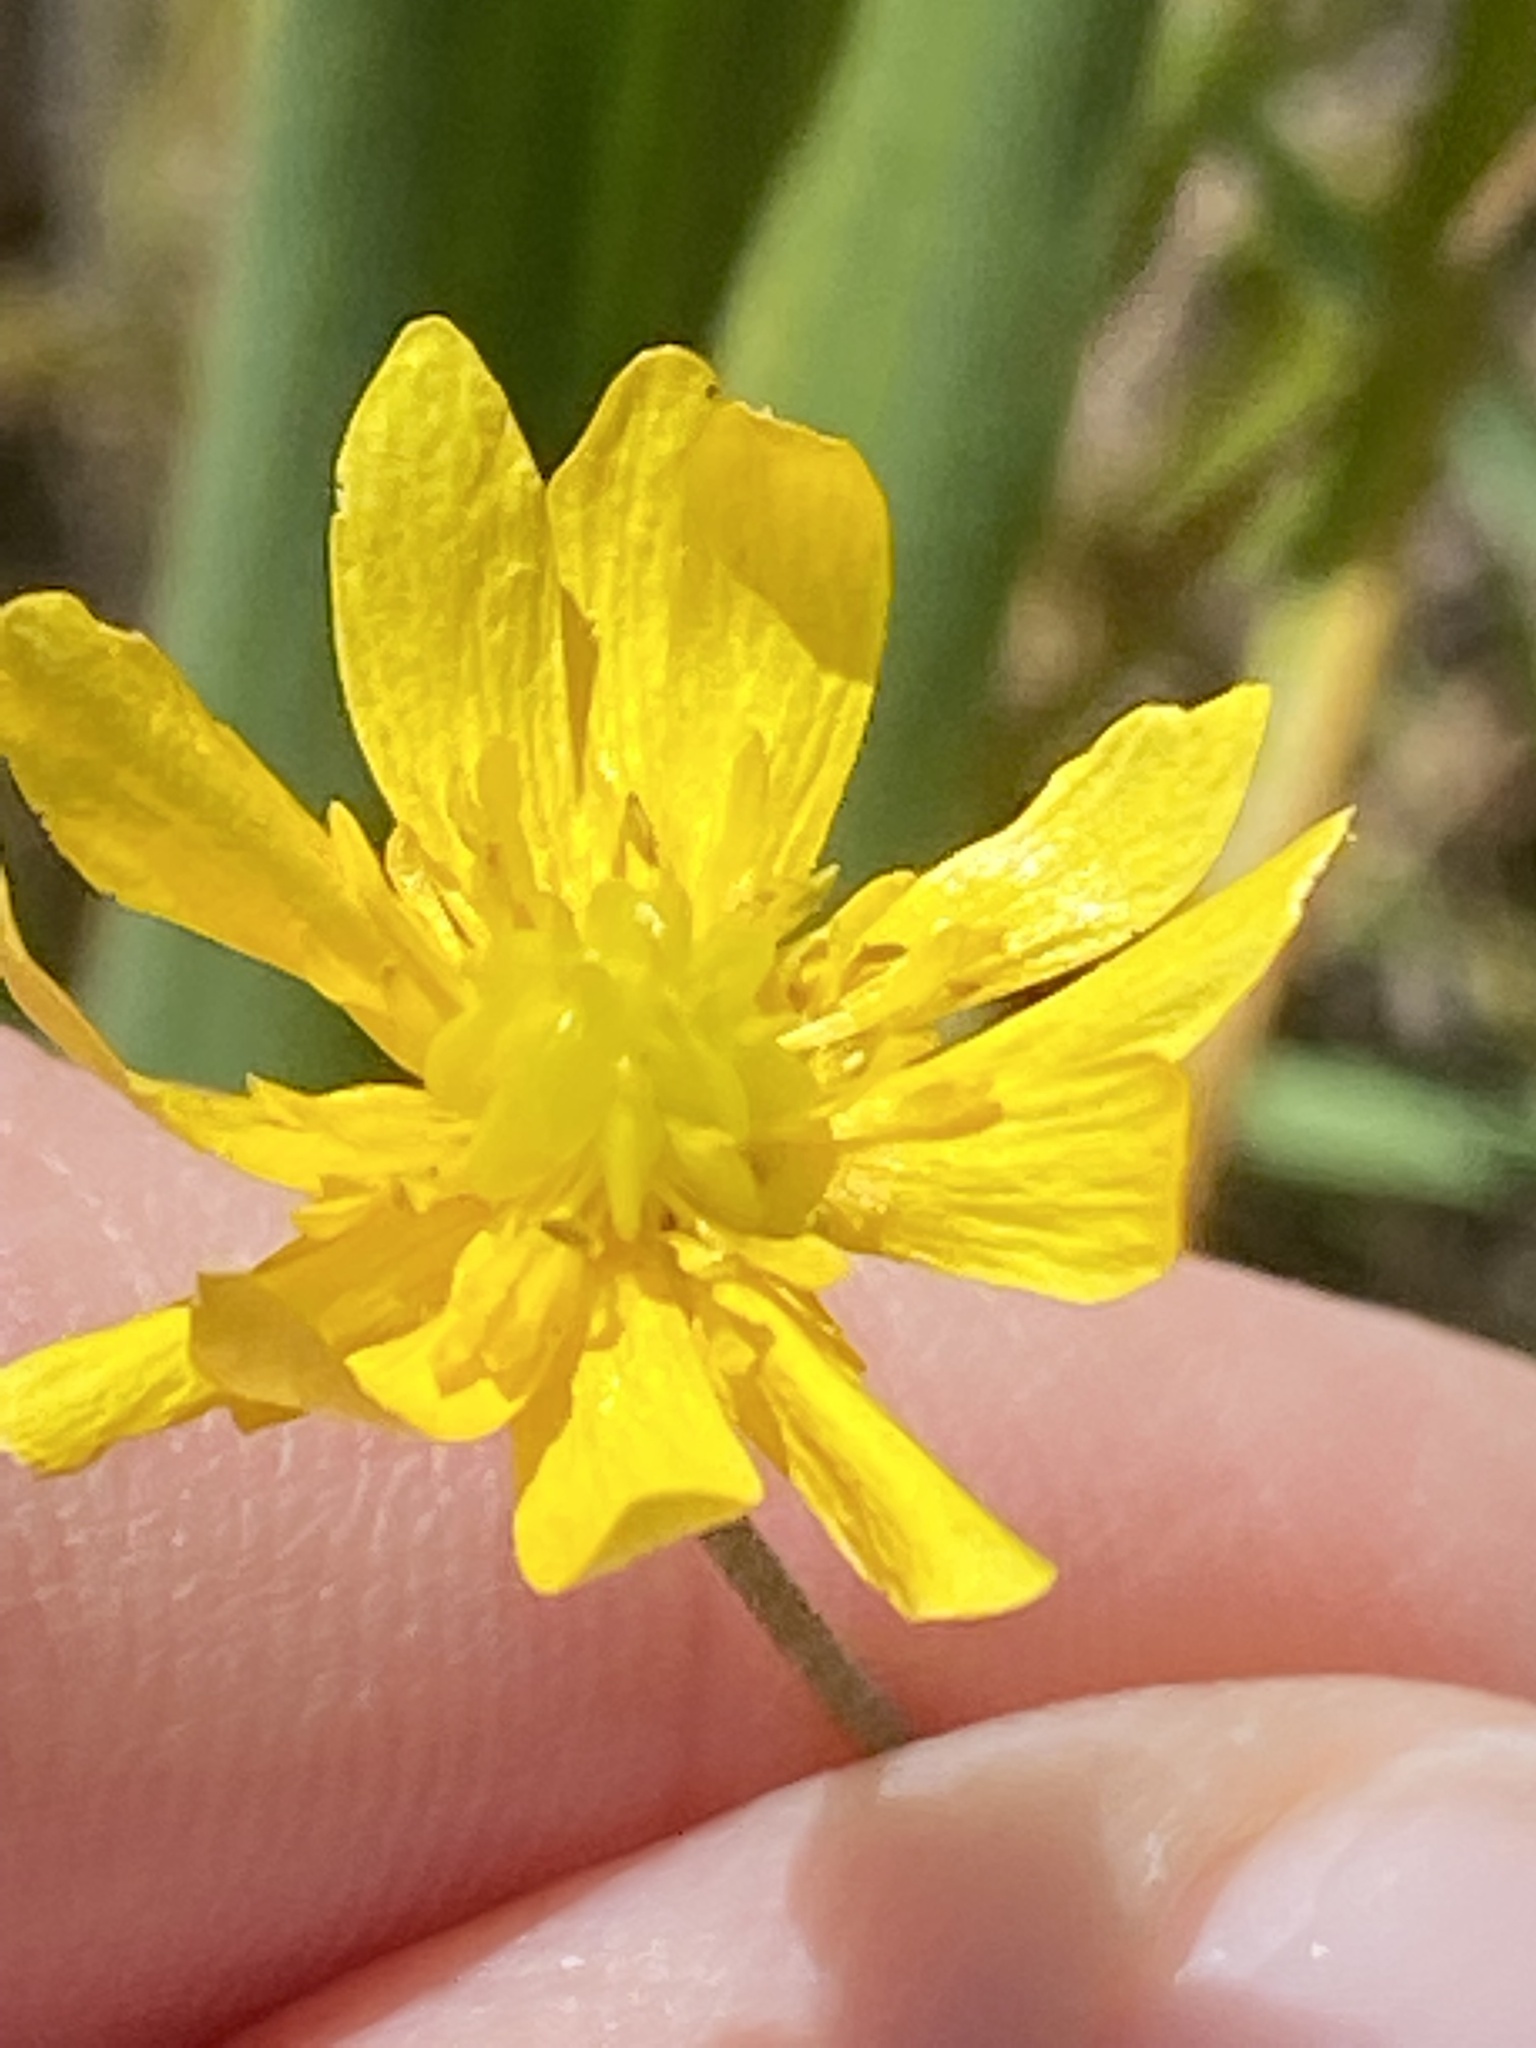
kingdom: Plantae
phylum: Tracheophyta
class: Magnoliopsida
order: Ranunculales
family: Ranunculaceae
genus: Ranunculus
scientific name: Ranunculus californicus
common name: California buttercup
